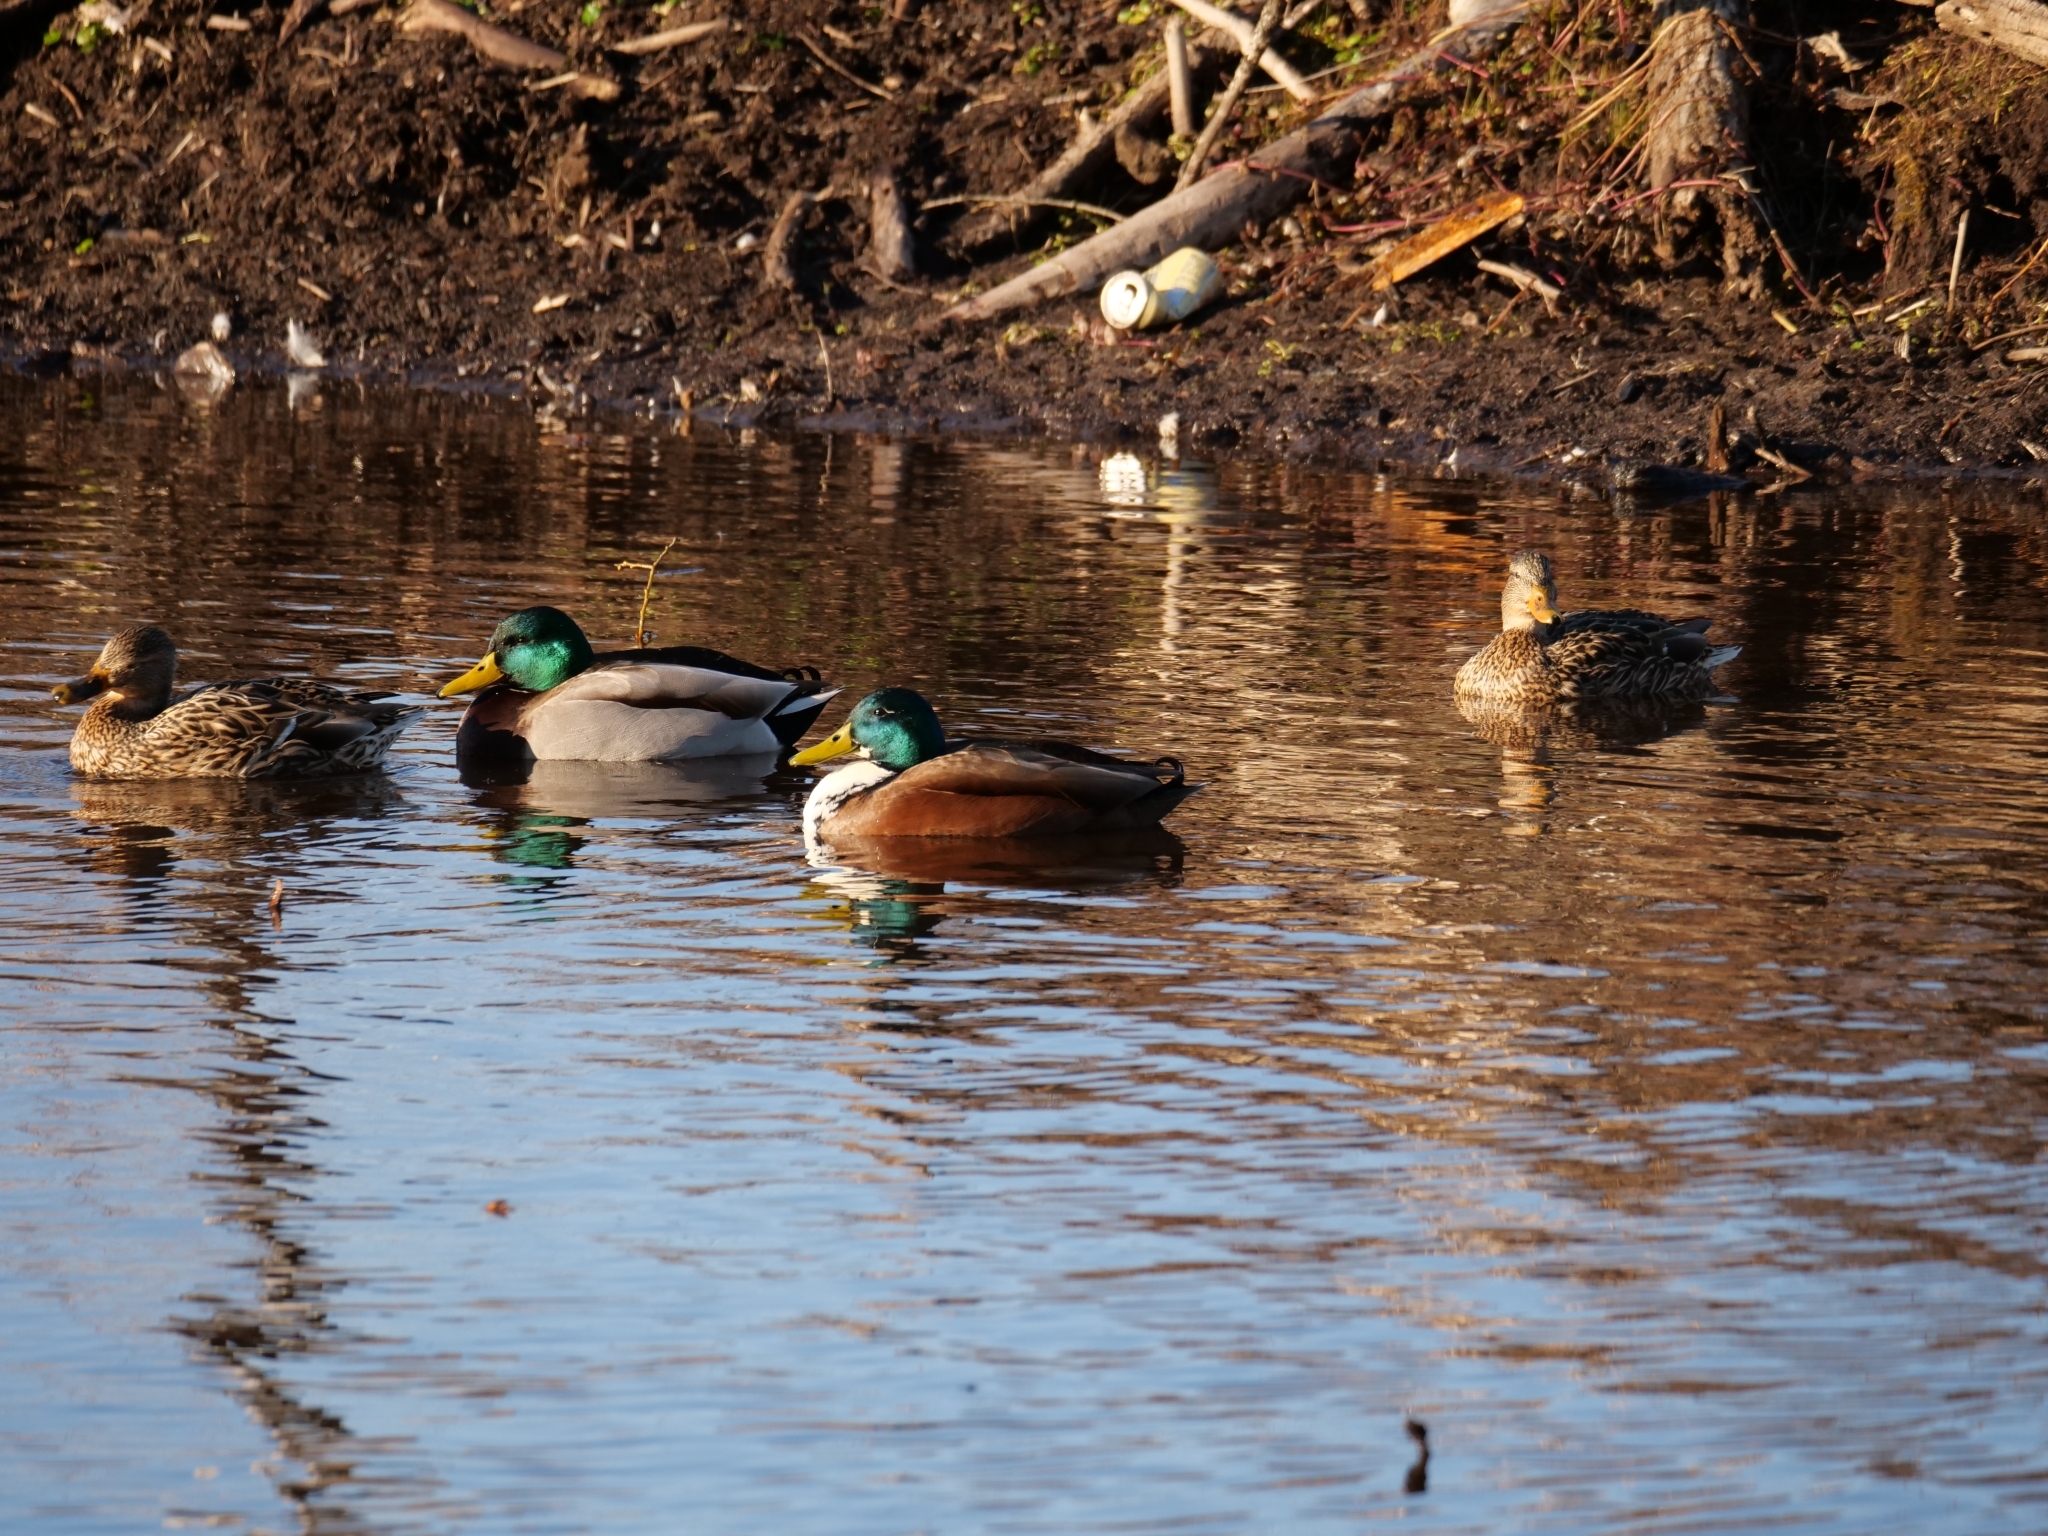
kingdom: Animalia
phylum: Chordata
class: Aves
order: Anseriformes
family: Anatidae
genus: Anas
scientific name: Anas platyrhynchos
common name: Mallard
